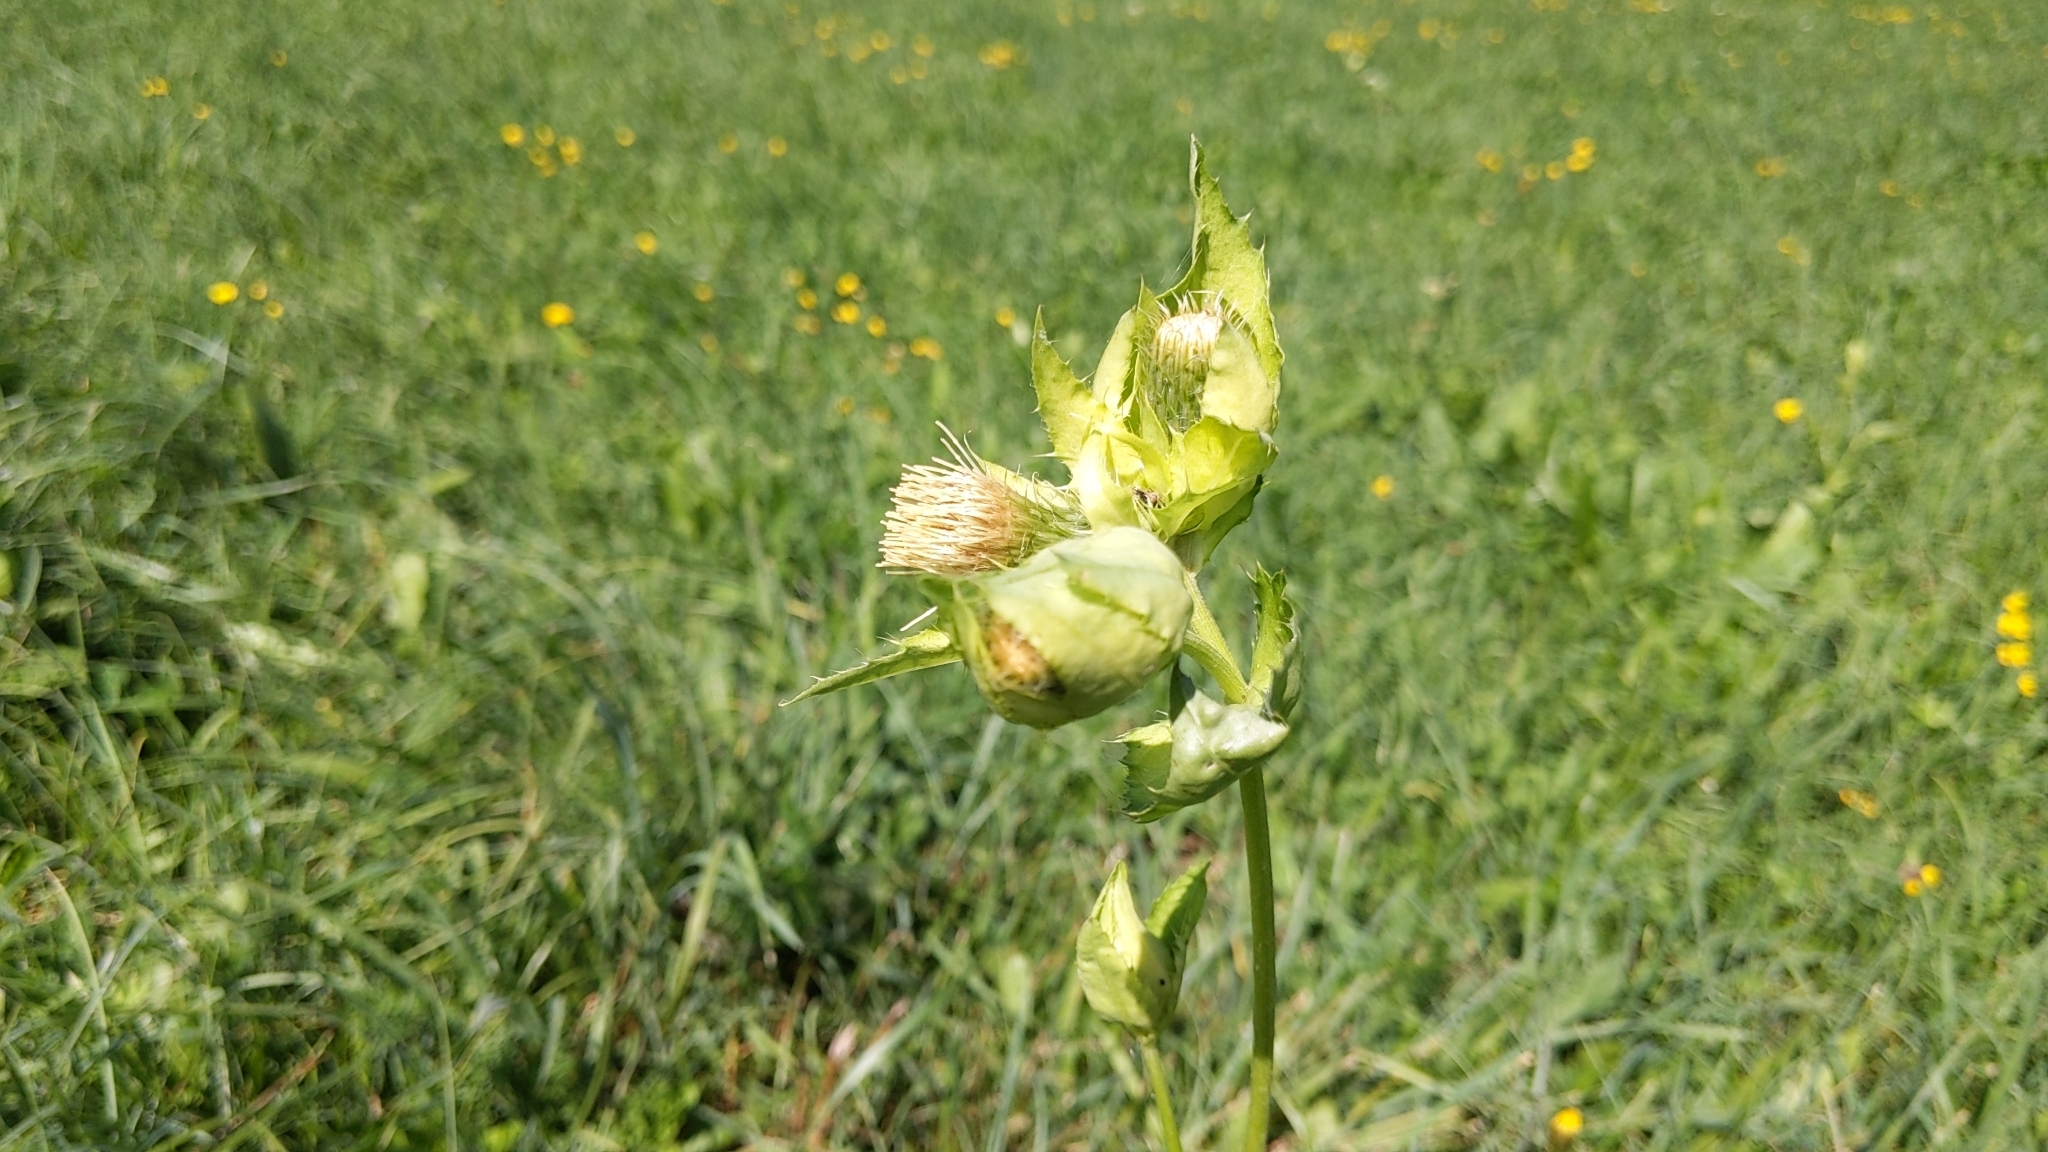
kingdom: Plantae
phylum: Tracheophyta
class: Magnoliopsida
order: Asterales
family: Asteraceae
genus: Cirsium
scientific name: Cirsium oleraceum
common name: Cabbage thistle
